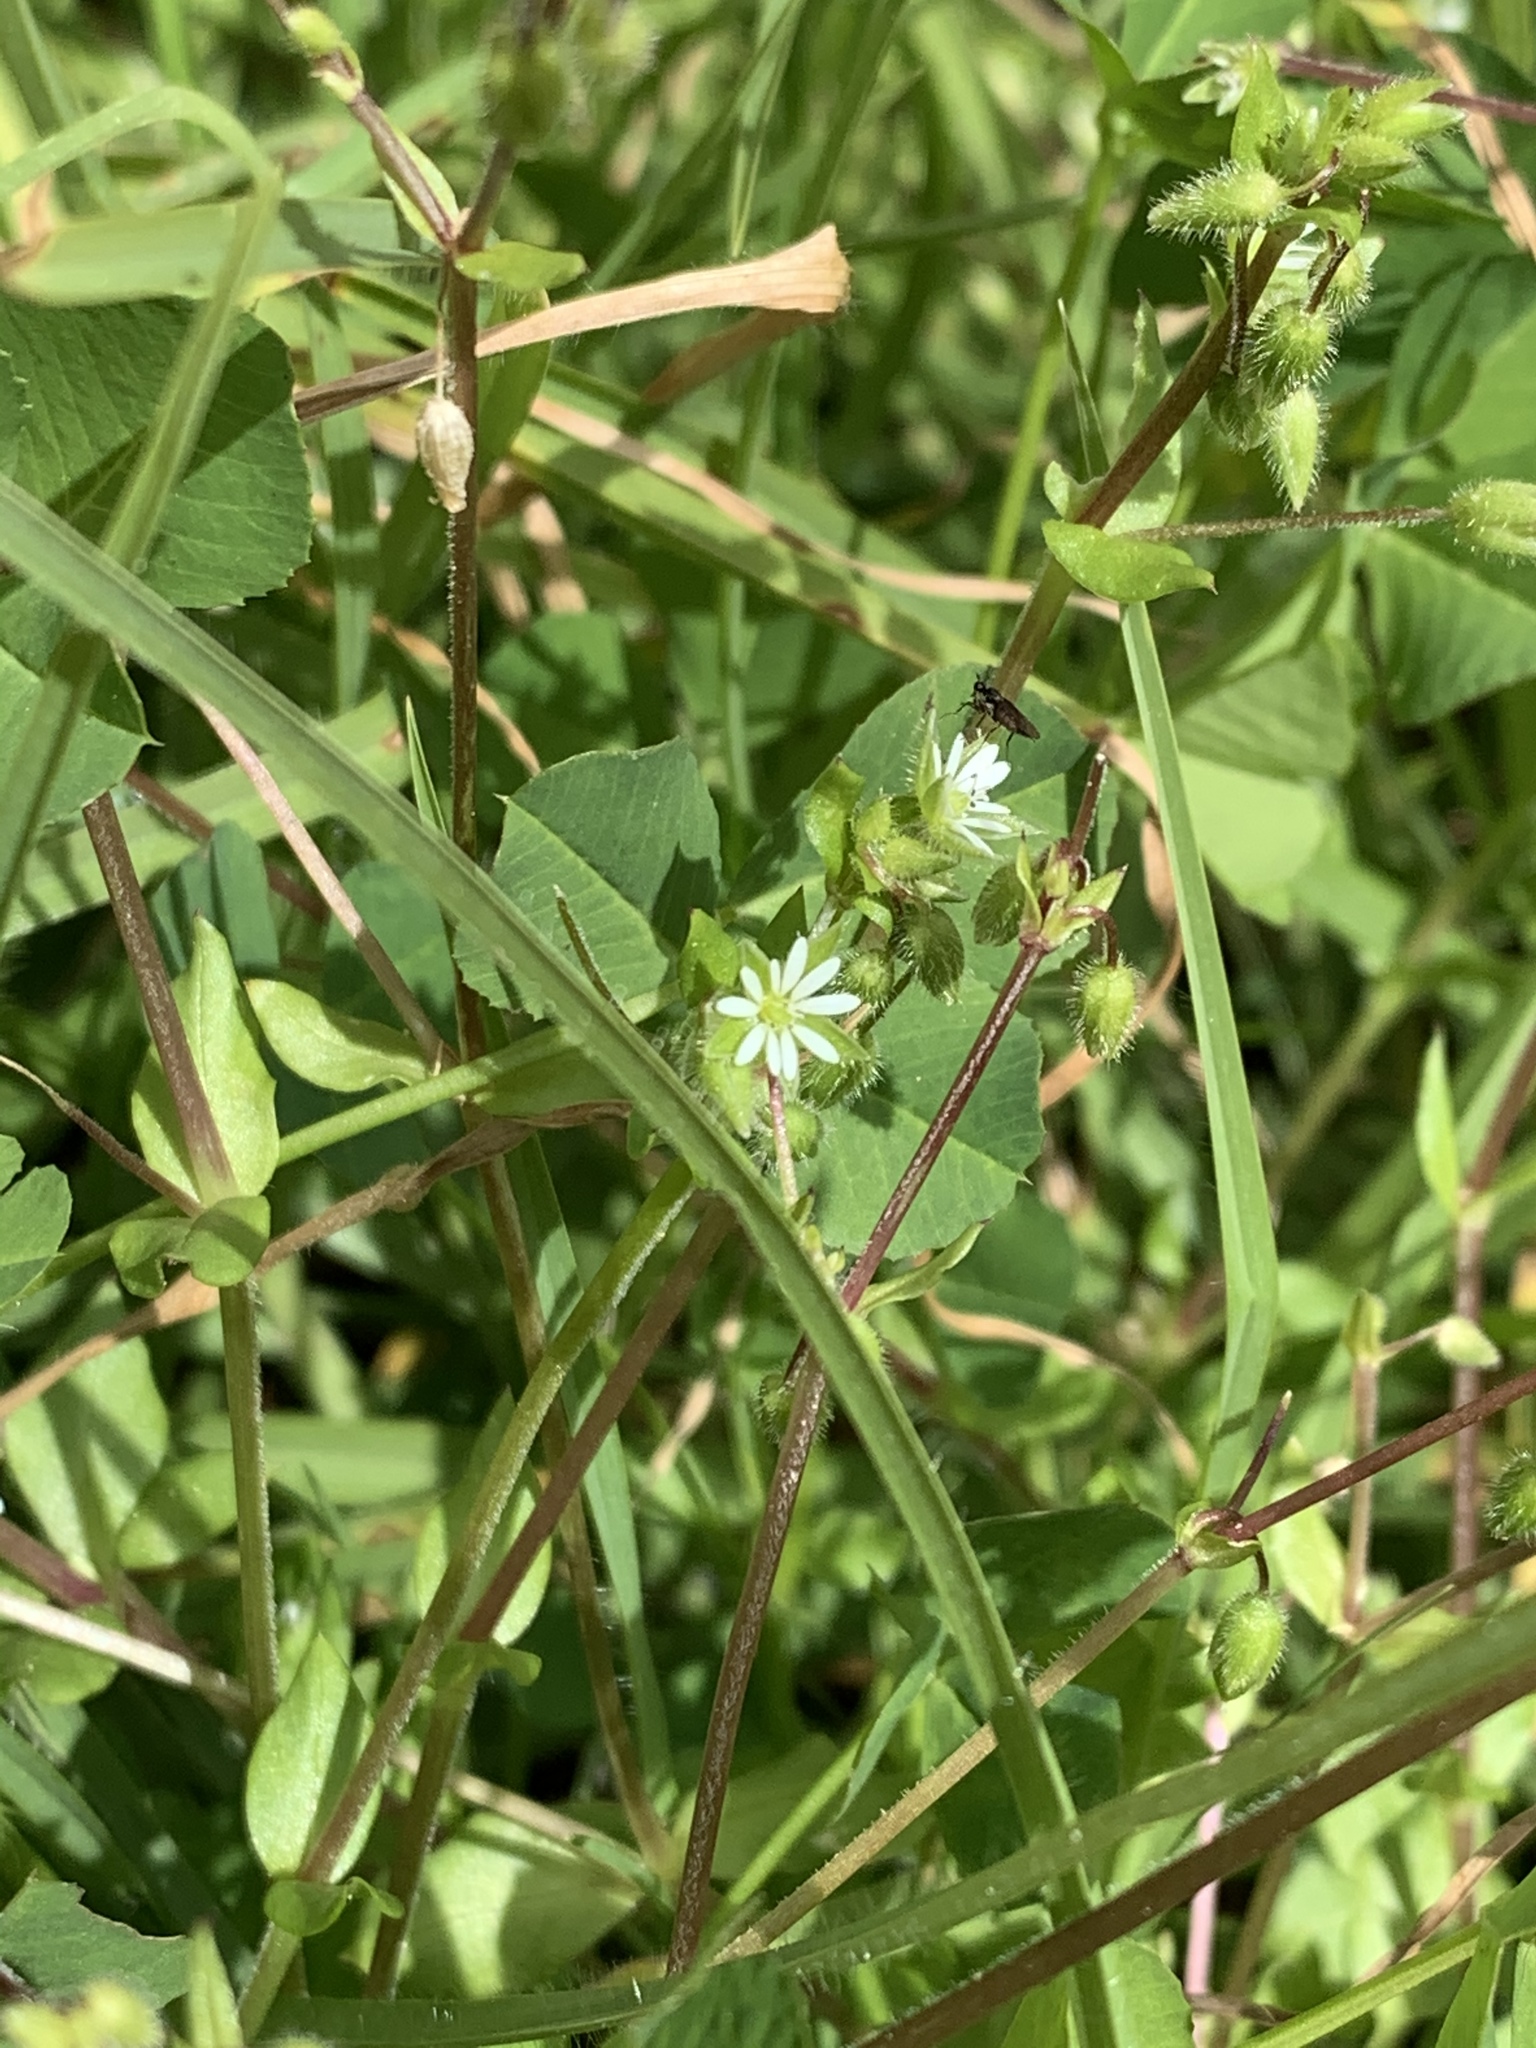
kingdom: Plantae
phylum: Tracheophyta
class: Magnoliopsida
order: Caryophyllales
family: Caryophyllaceae
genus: Stellaria
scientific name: Stellaria media
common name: Common chickweed
